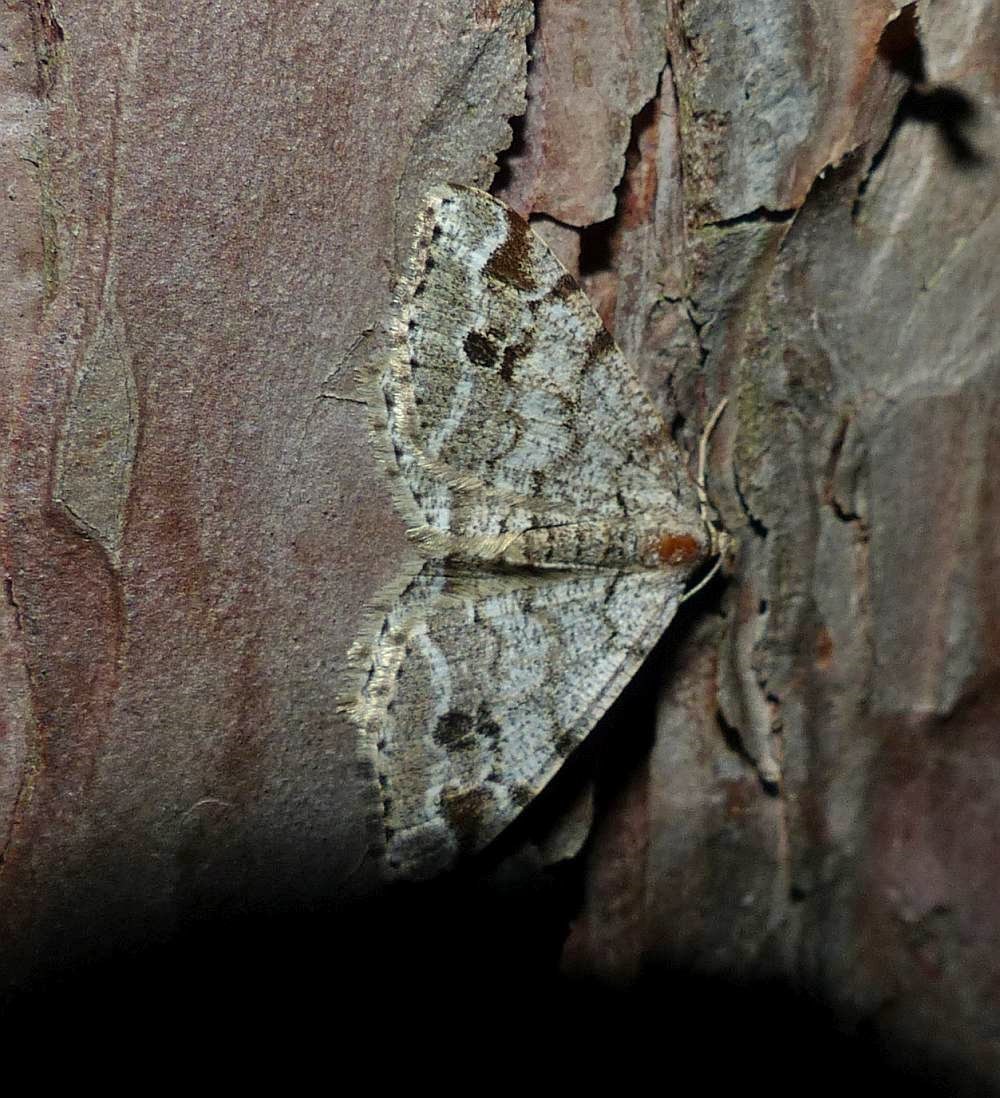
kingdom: Animalia
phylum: Arthropoda
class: Insecta
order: Lepidoptera
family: Geometridae
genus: Macaria
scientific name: Macaria signaria
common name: Dusky peacock
